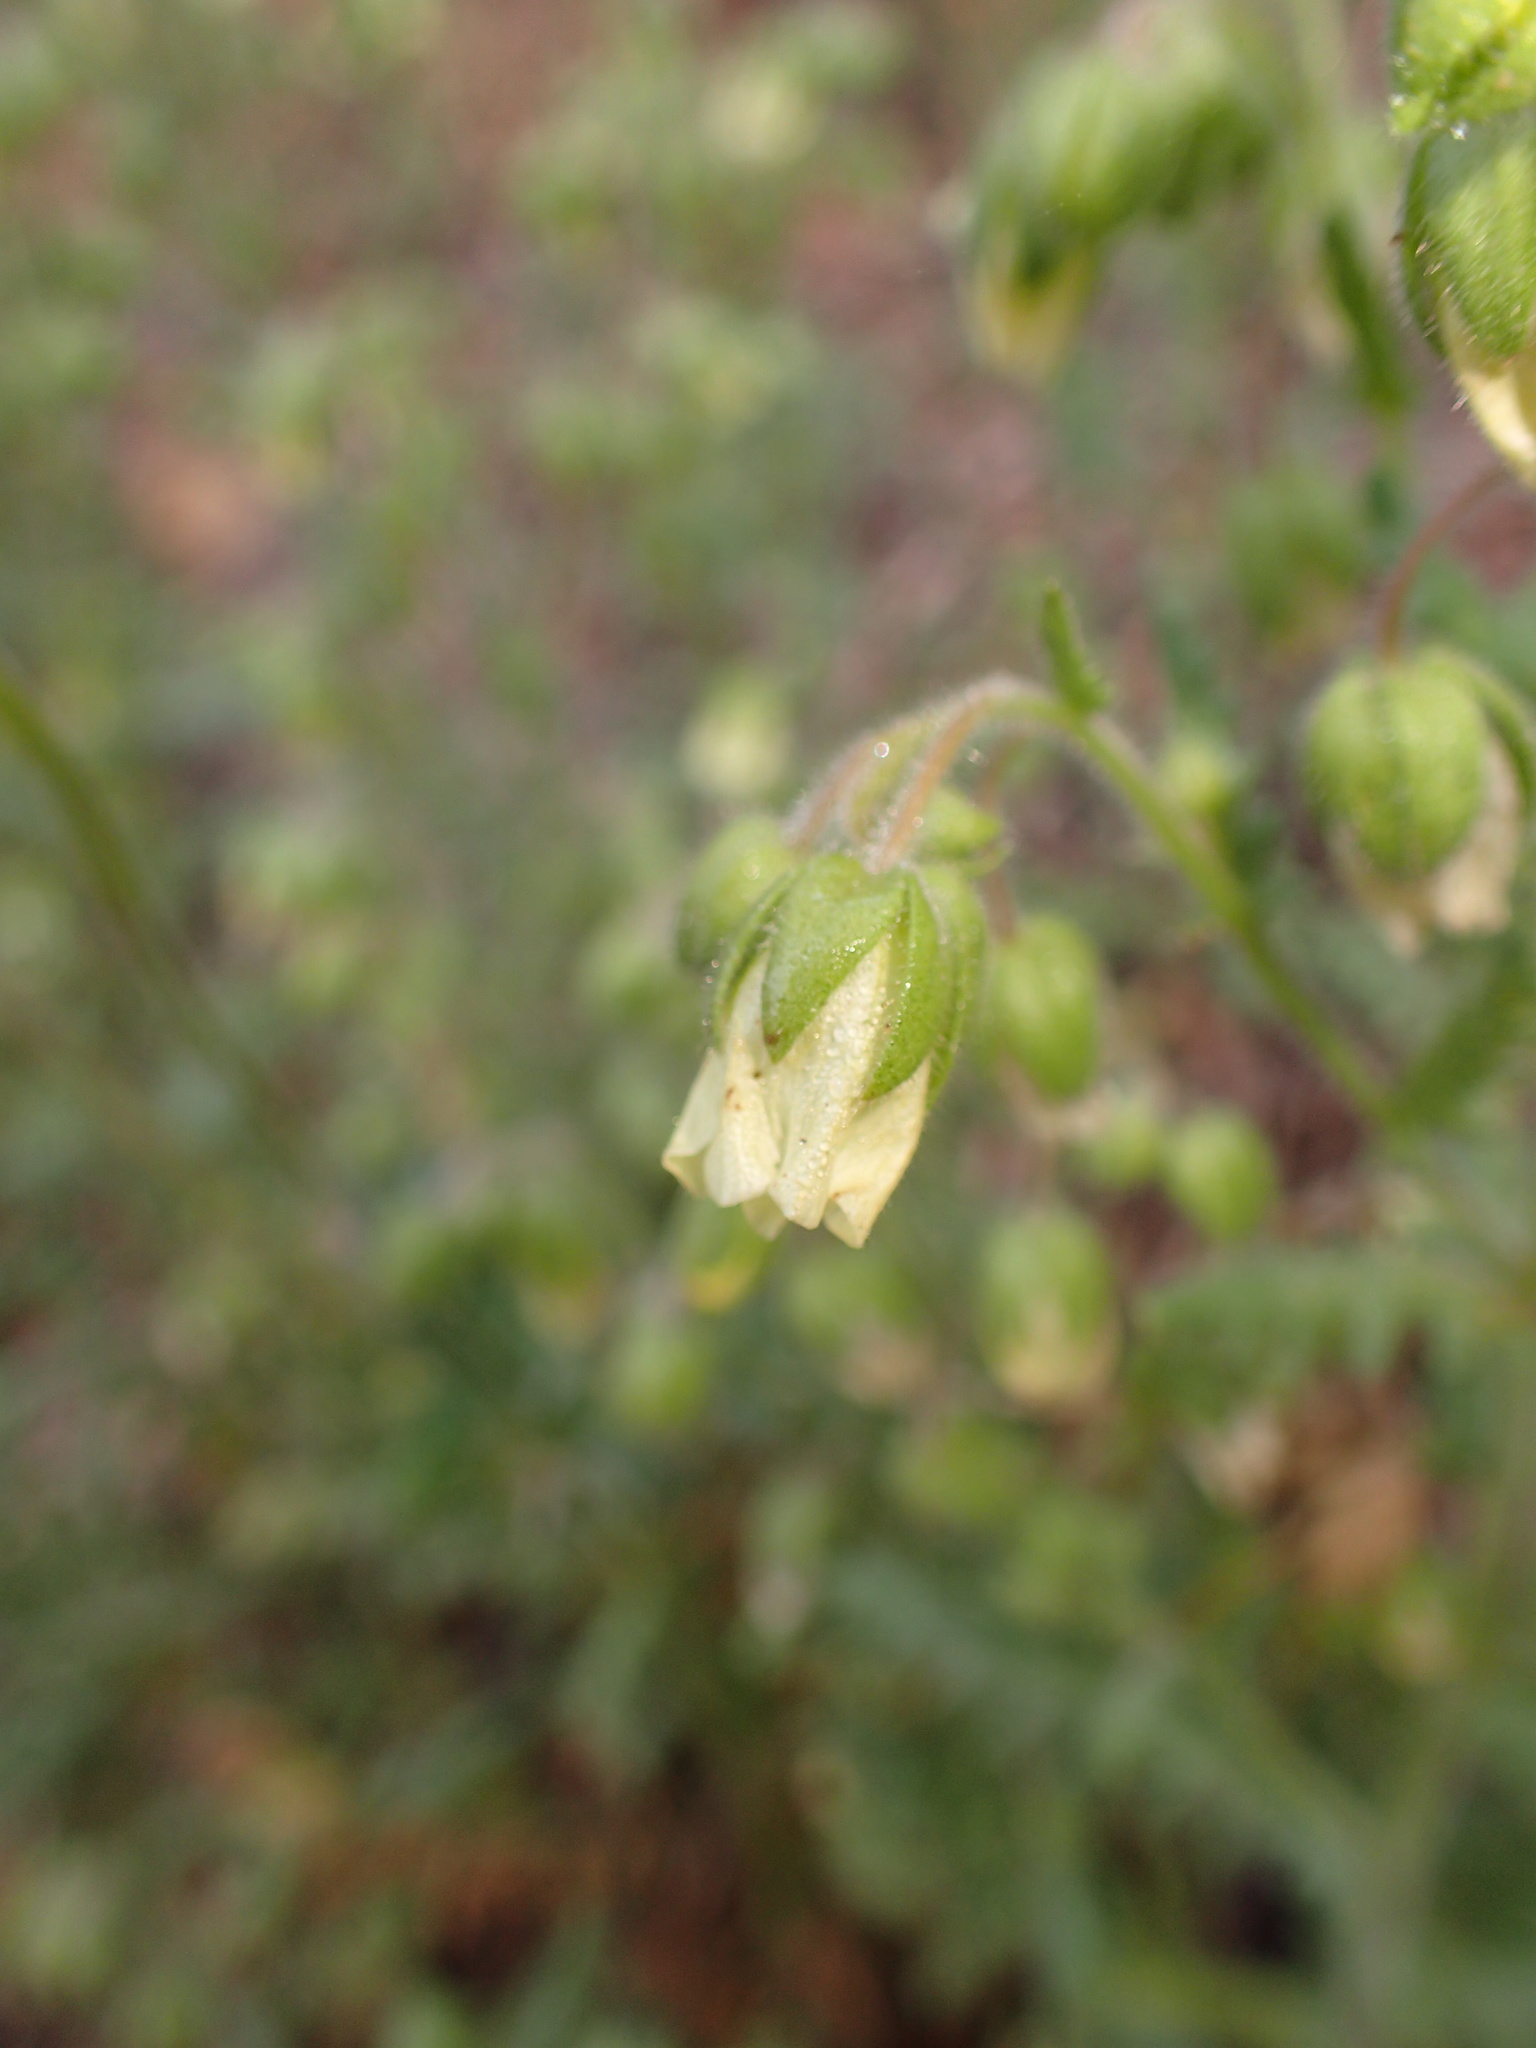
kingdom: Plantae
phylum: Tracheophyta
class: Magnoliopsida
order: Boraginales
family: Hydrophyllaceae
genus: Emmenanthe
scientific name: Emmenanthe penduliflora
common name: Whispering-bells
